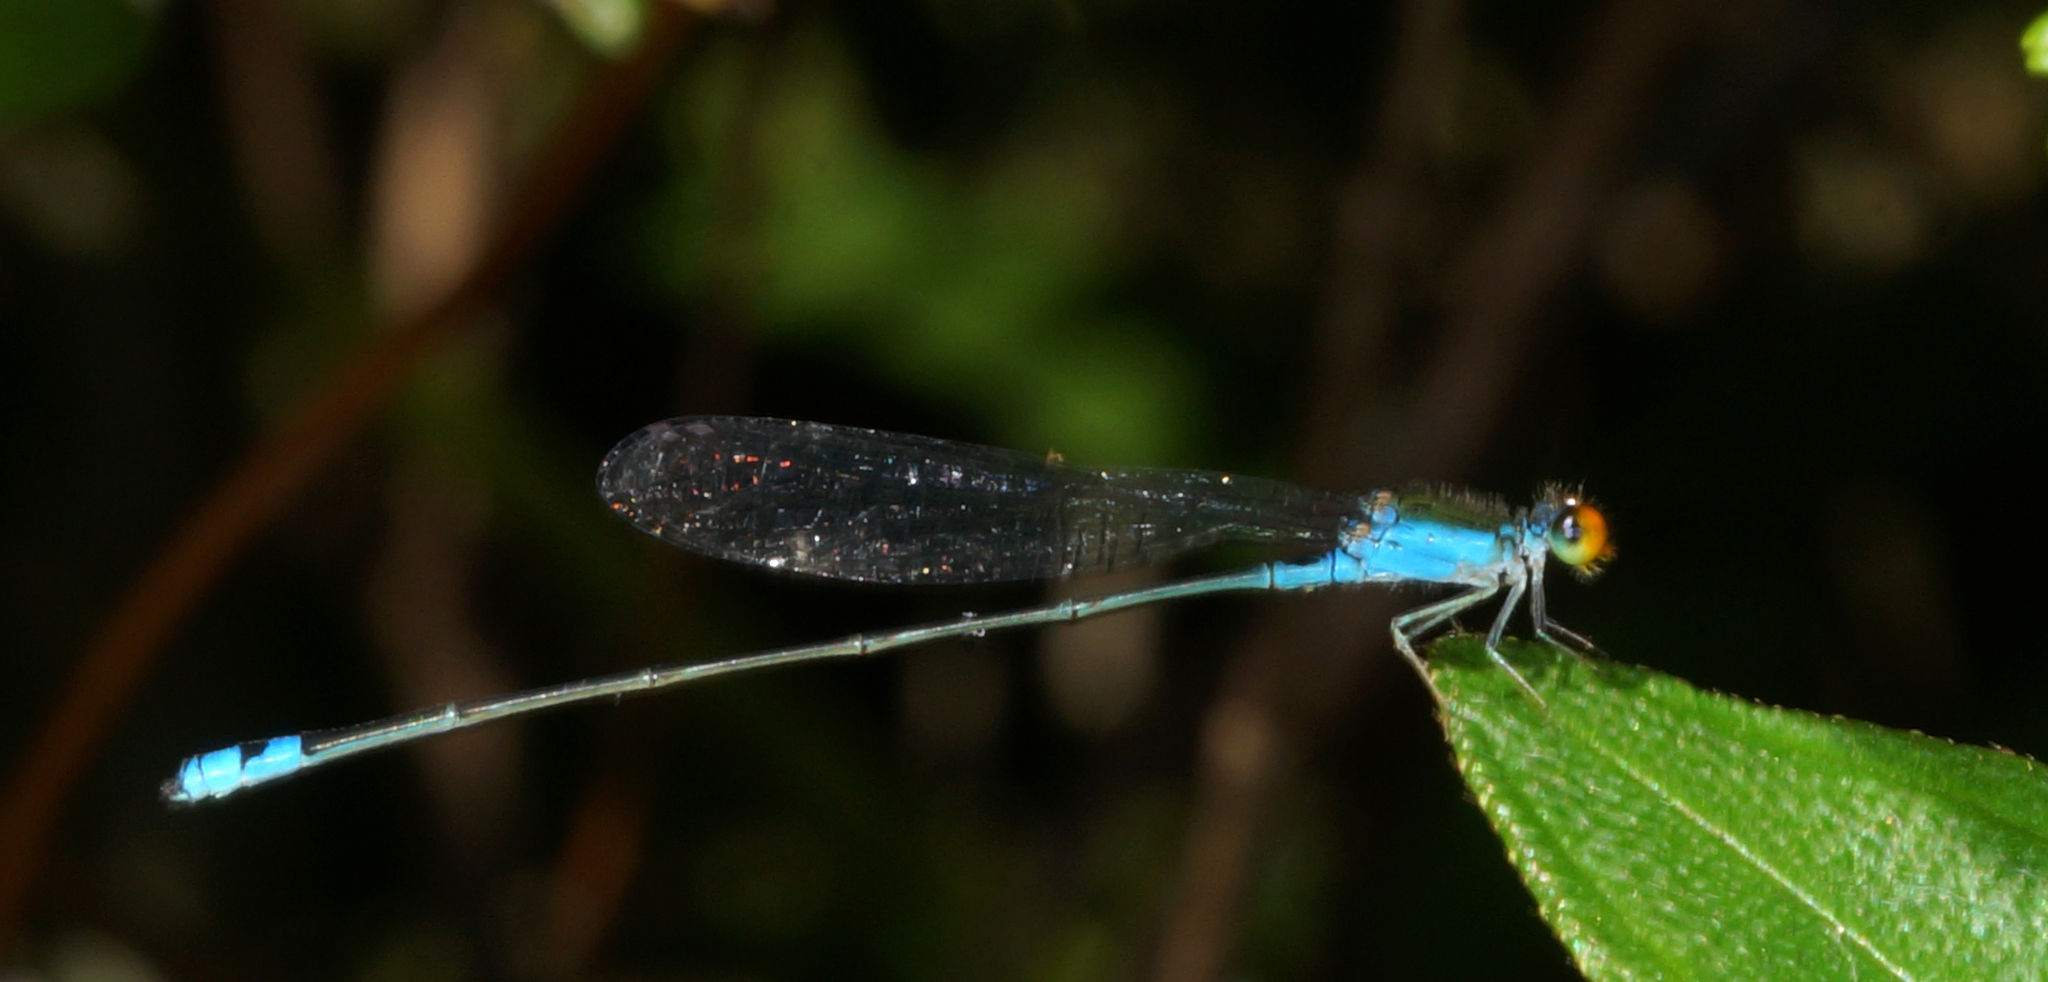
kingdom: Animalia
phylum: Arthropoda
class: Insecta
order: Odonata
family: Coenagrionidae
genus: Pseudagrion
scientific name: Pseudagrion rubriceps
